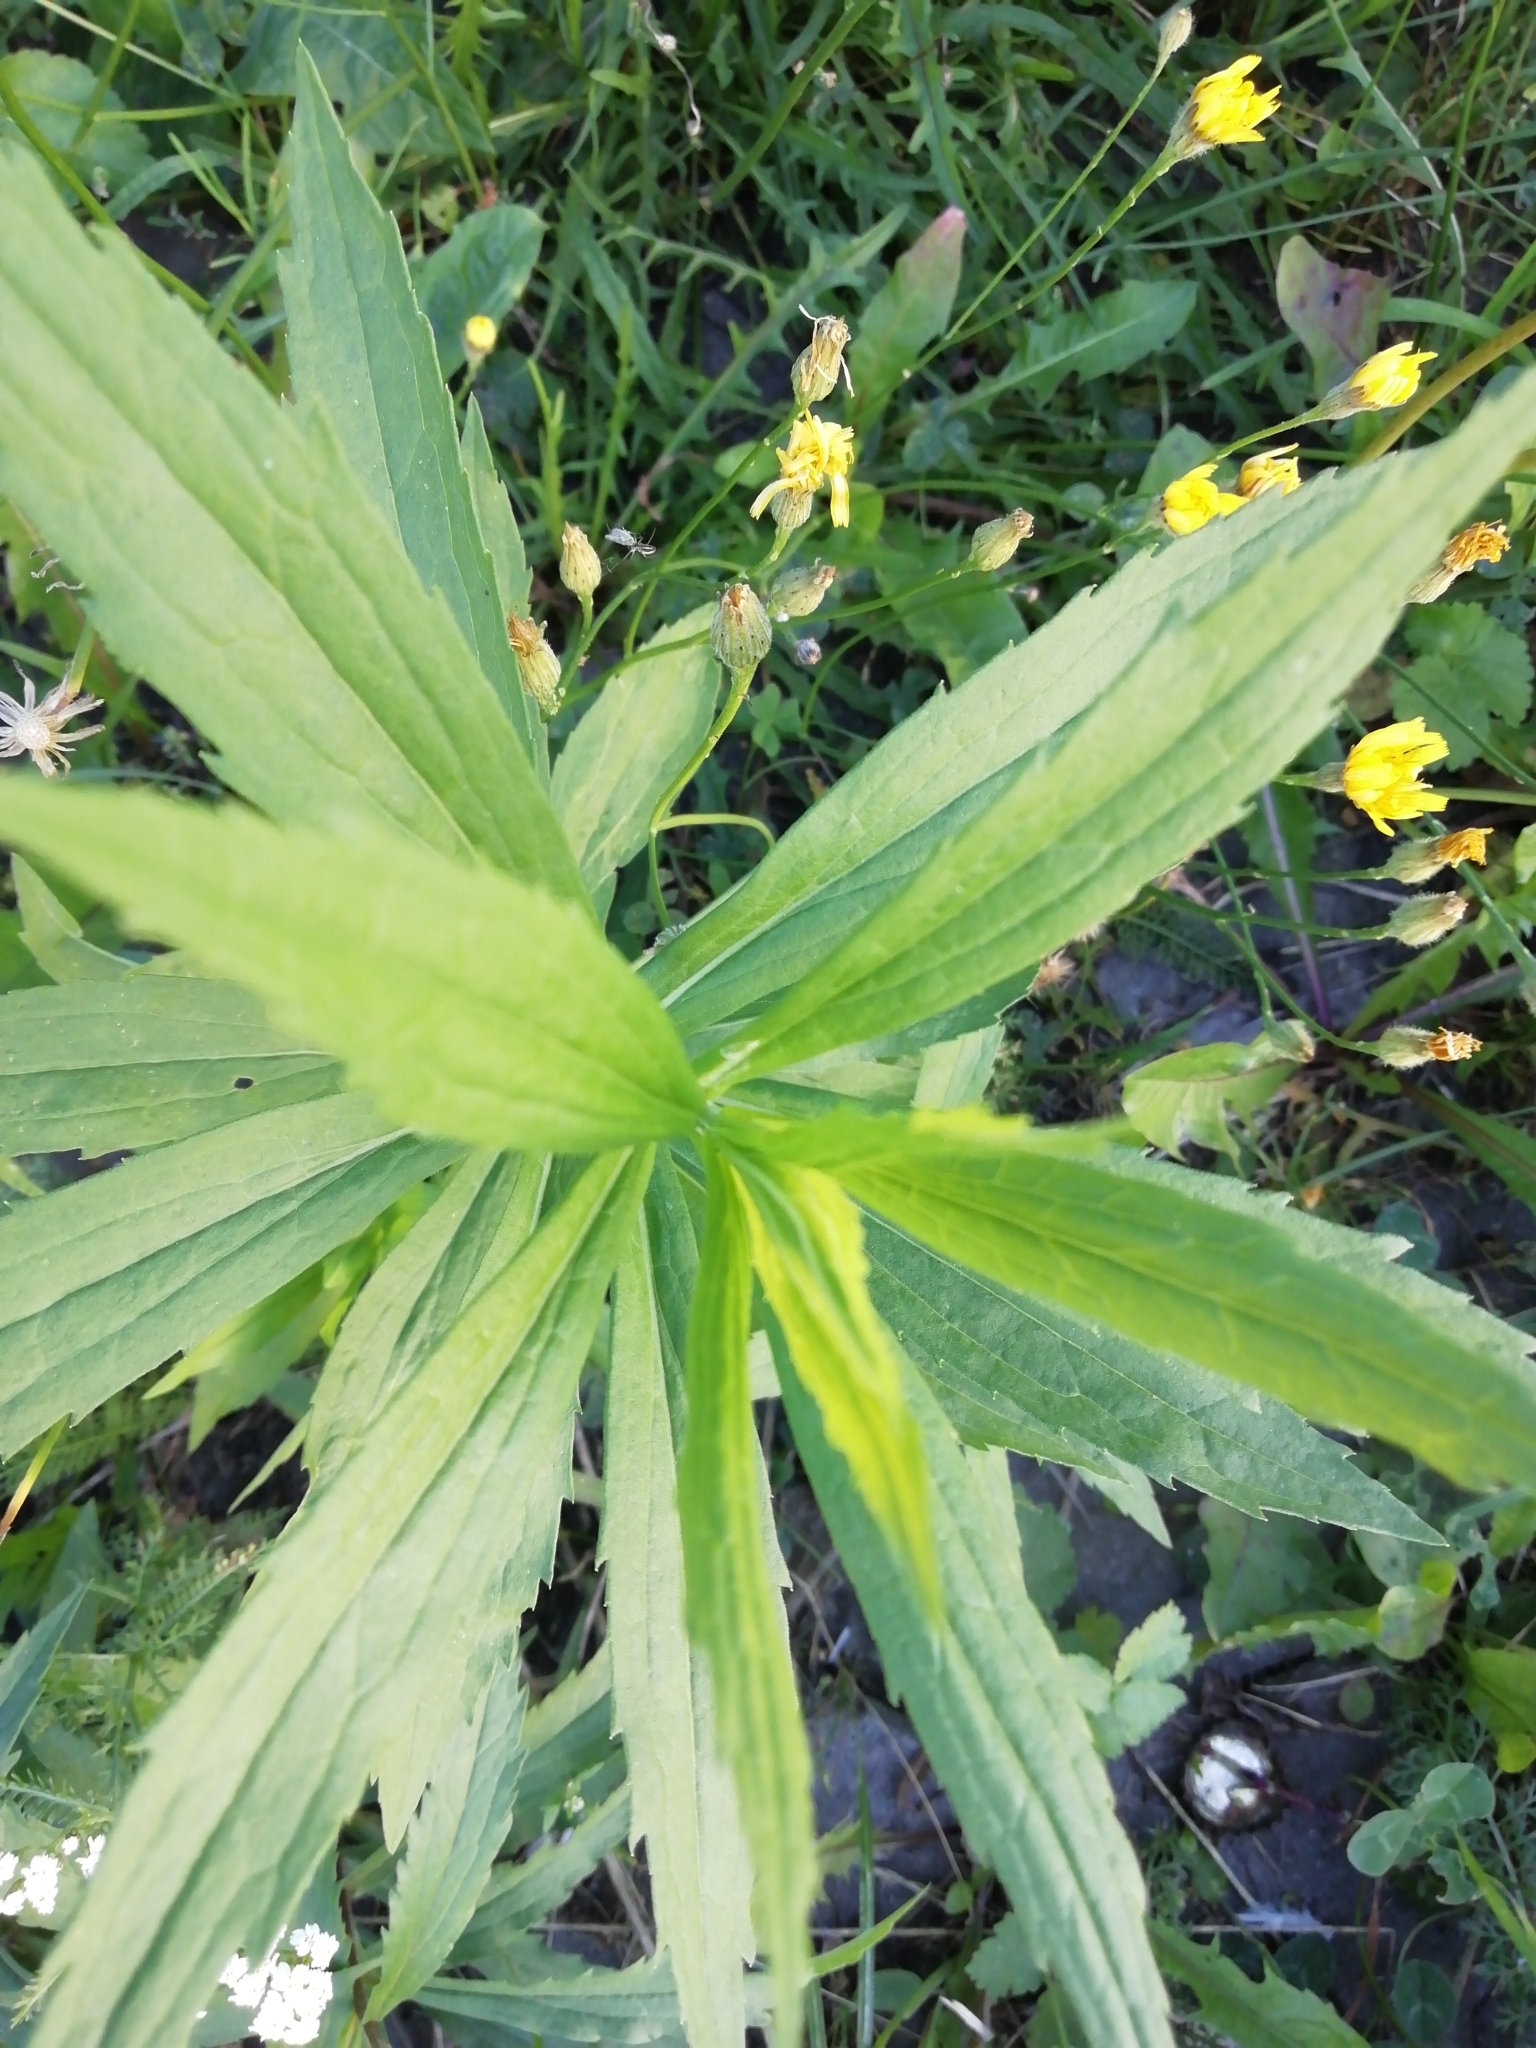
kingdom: Plantae
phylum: Tracheophyta
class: Magnoliopsida
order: Asterales
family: Asteraceae
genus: Solidago
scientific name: Solidago canadensis
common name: Canada goldenrod
